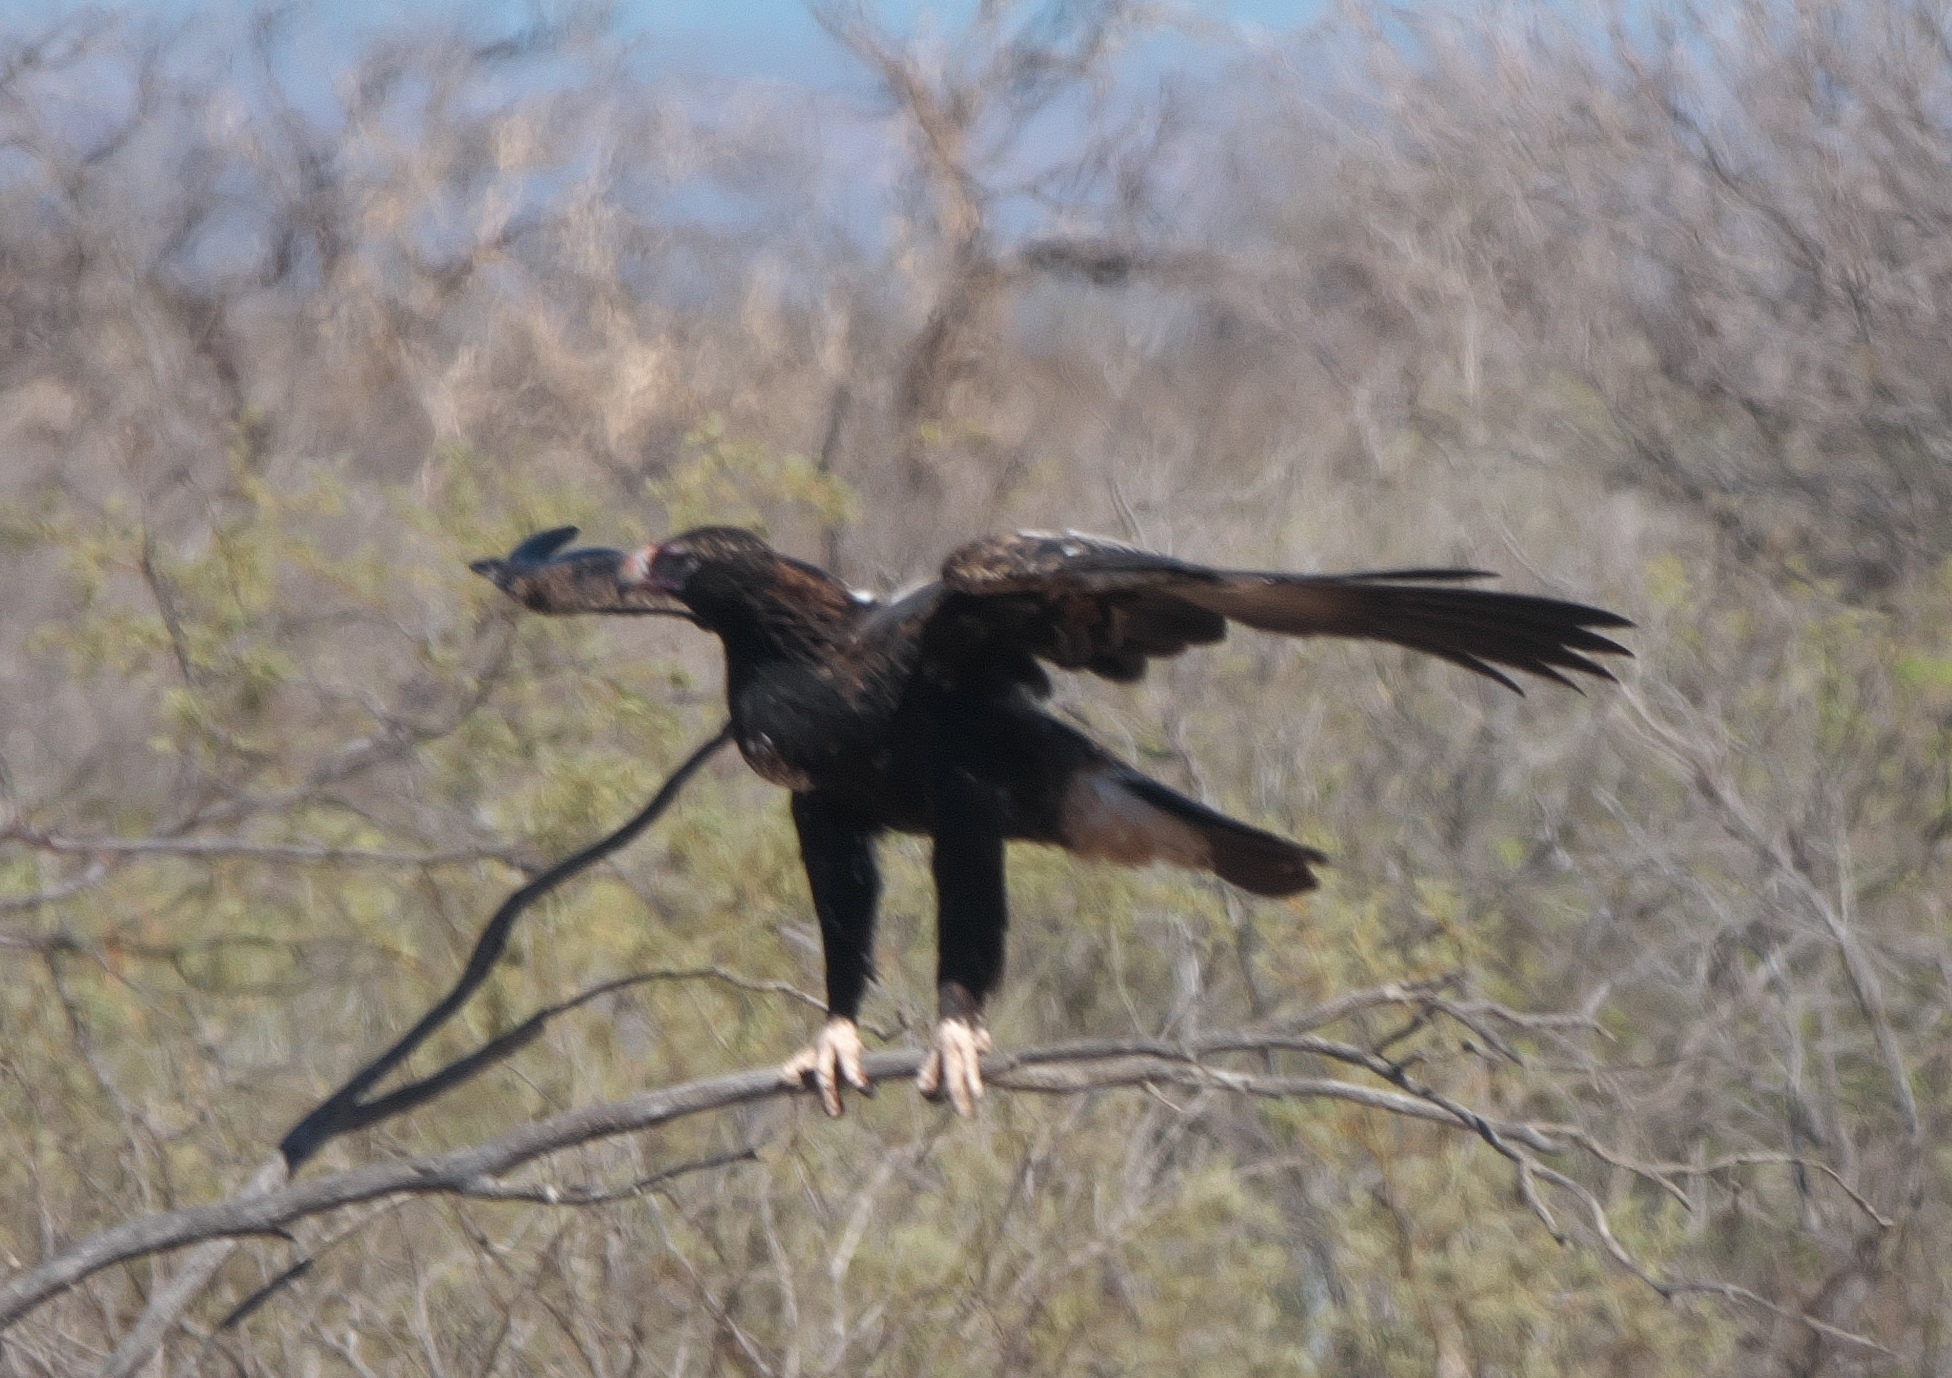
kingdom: Animalia
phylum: Chordata
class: Aves
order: Accipitriformes
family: Accipitridae
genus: Aquila
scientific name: Aquila audax
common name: Wedge-tailed eagle
